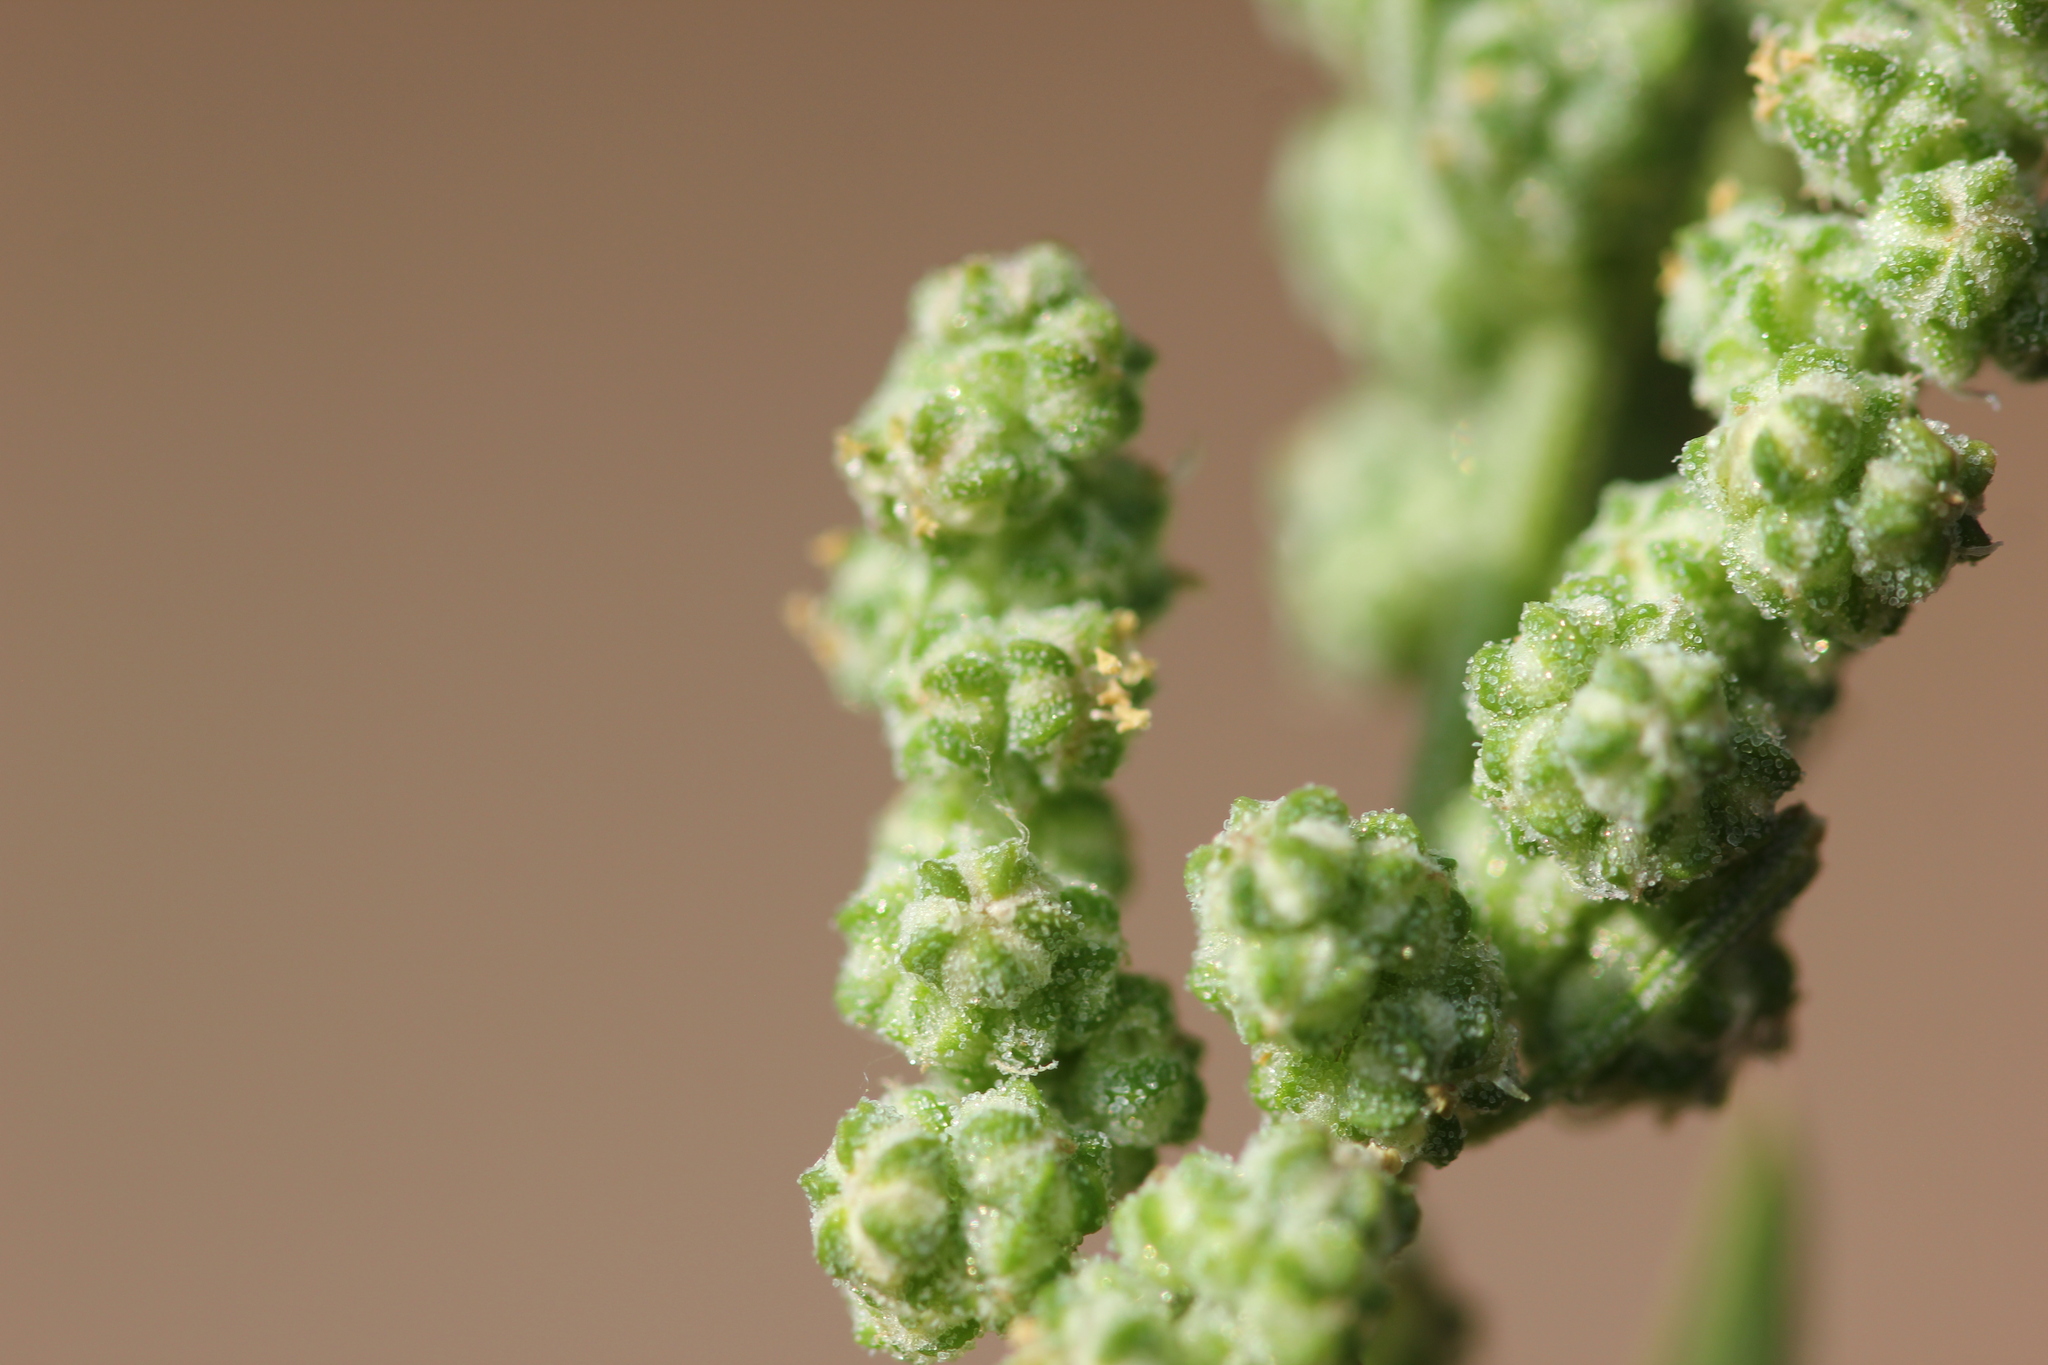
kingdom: Plantae
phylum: Tracheophyta
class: Magnoliopsida
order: Caryophyllales
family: Amaranthaceae
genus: Chenopodium
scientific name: Chenopodium album
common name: Fat-hen
